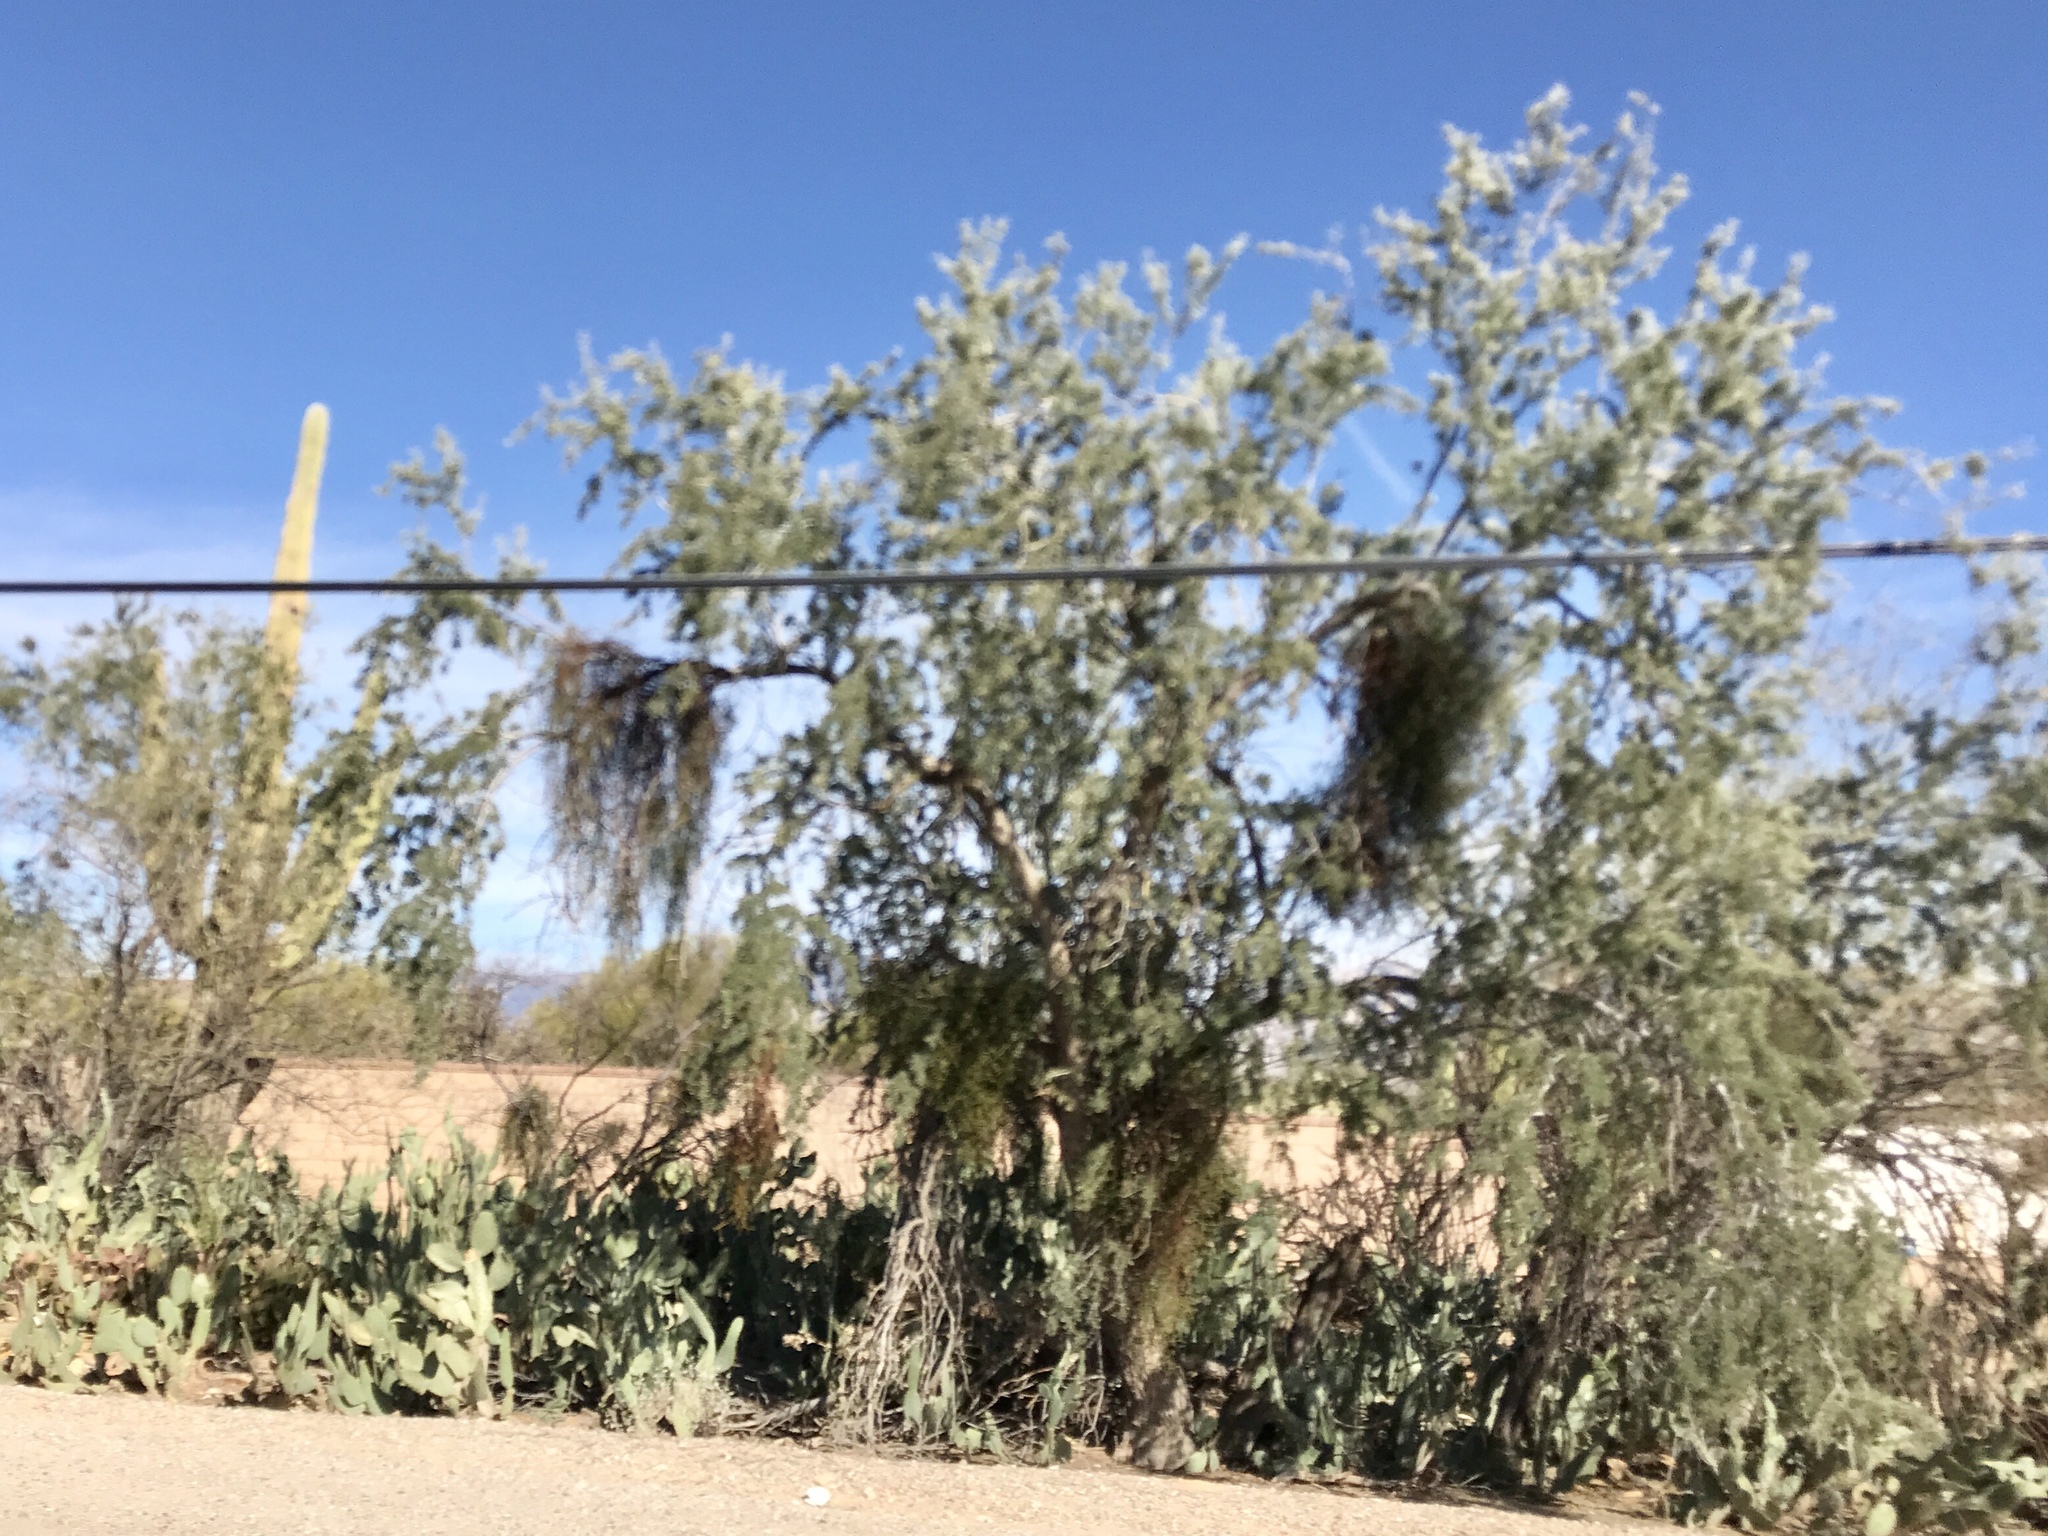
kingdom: Plantae
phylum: Tracheophyta
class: Magnoliopsida
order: Fabales
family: Fabaceae
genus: Olneya
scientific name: Olneya tesota
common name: Desert ironwood
